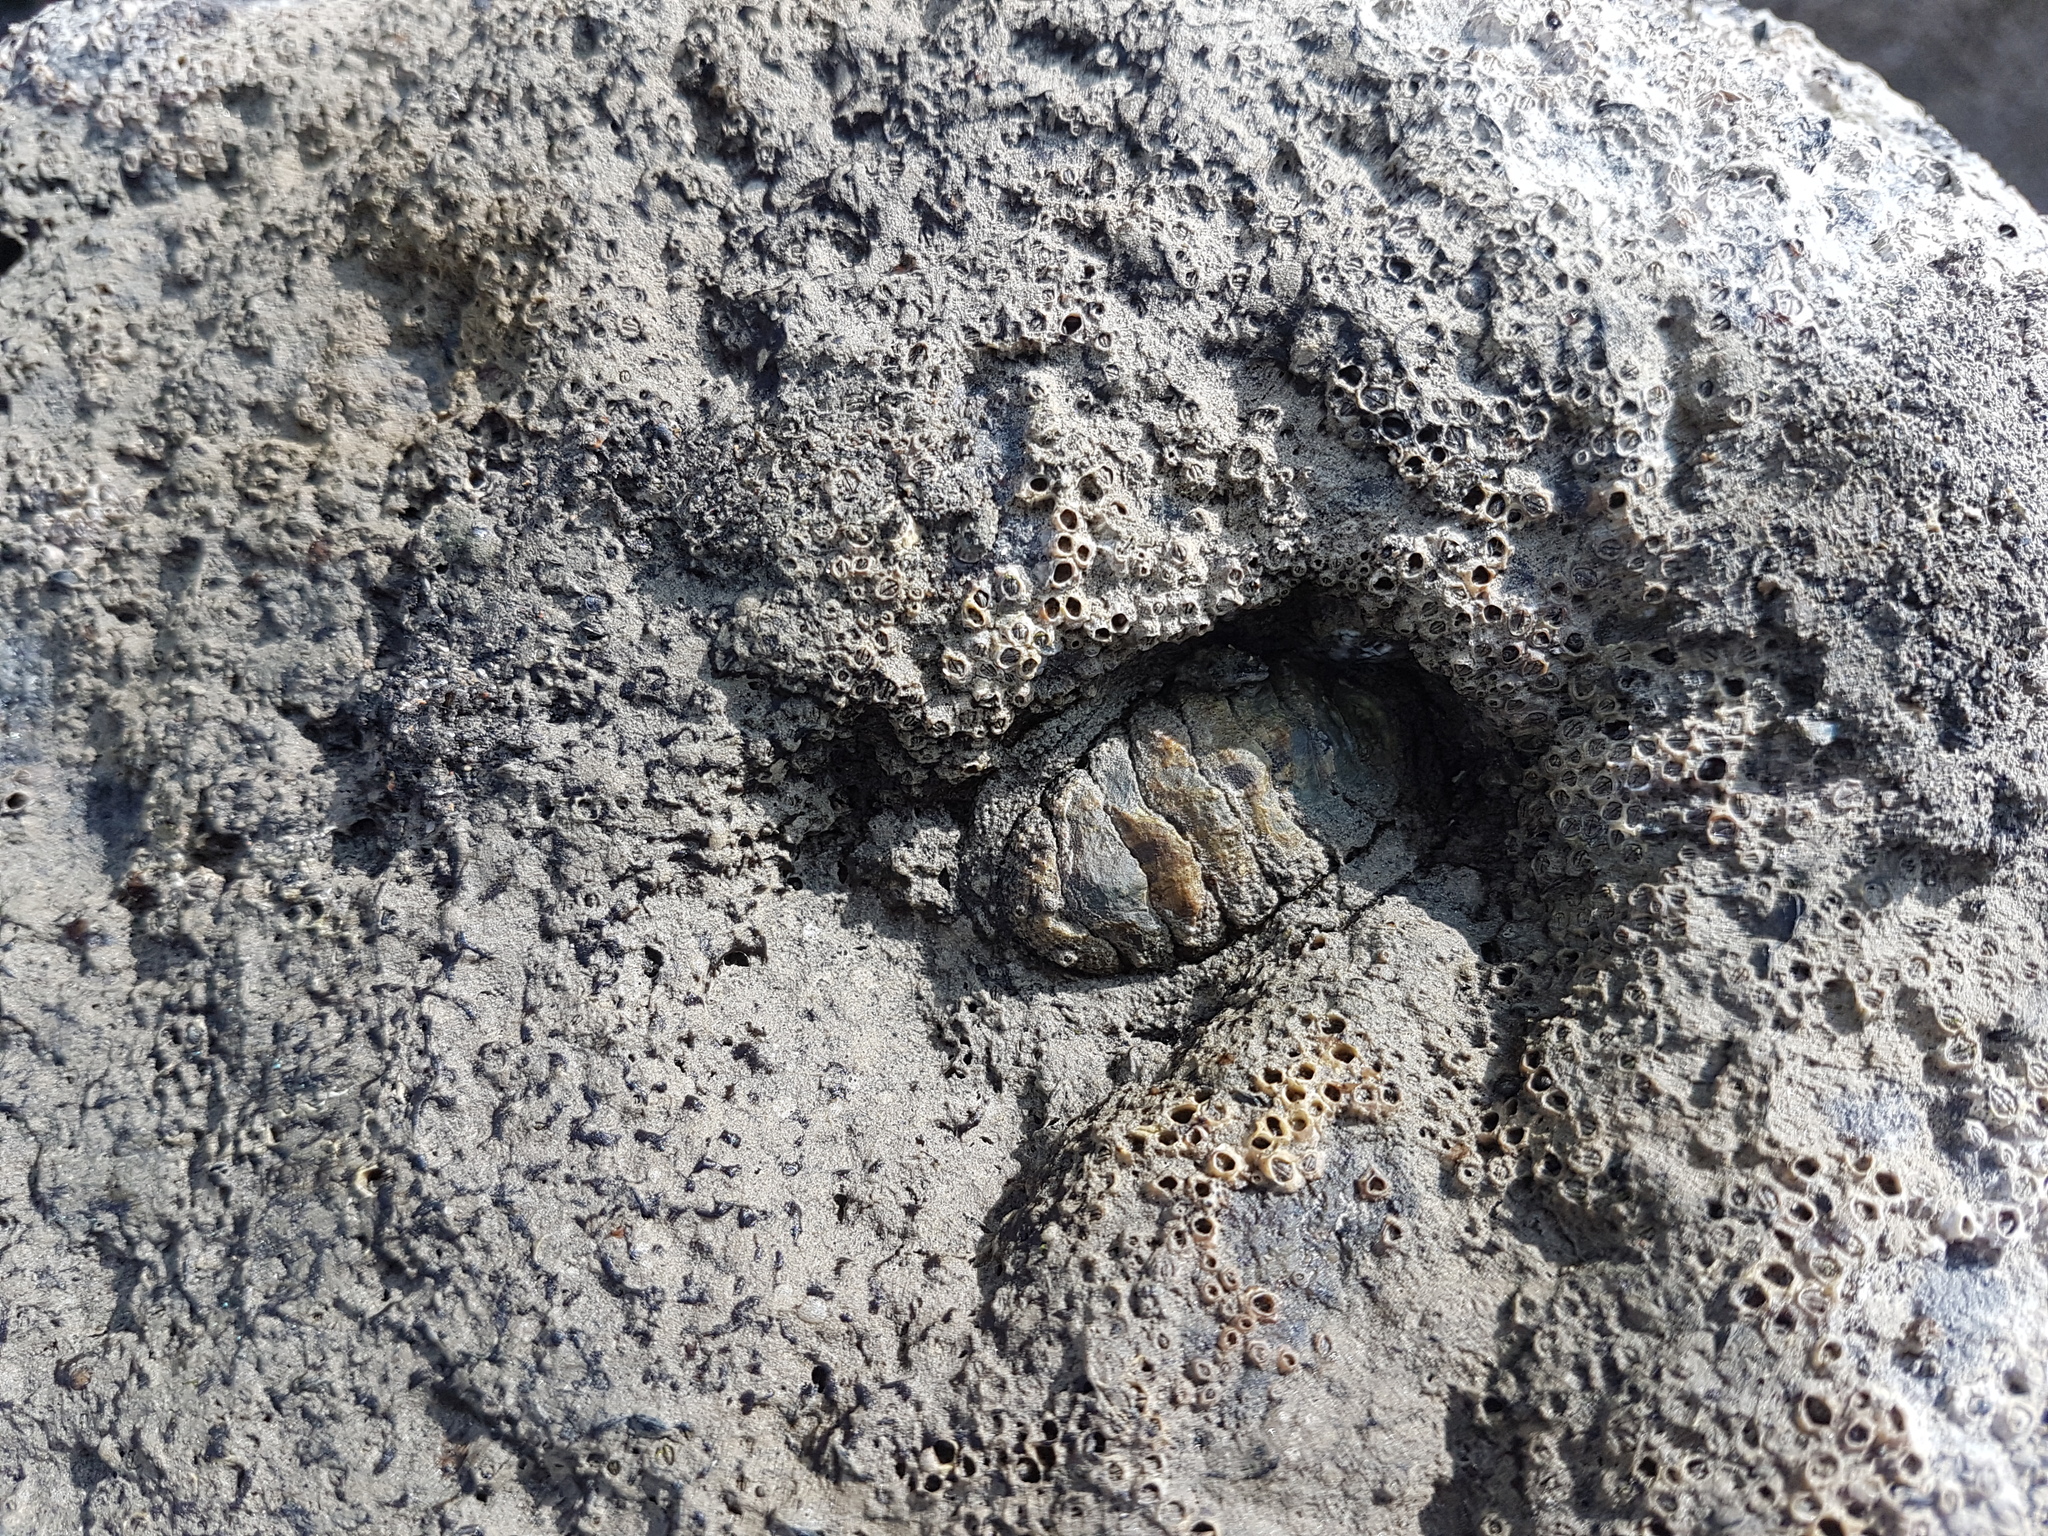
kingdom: Animalia
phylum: Mollusca
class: Polyplacophora
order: Chitonida
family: Chitonidae
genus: Sypharochiton
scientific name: Sypharochiton pelliserpentis
